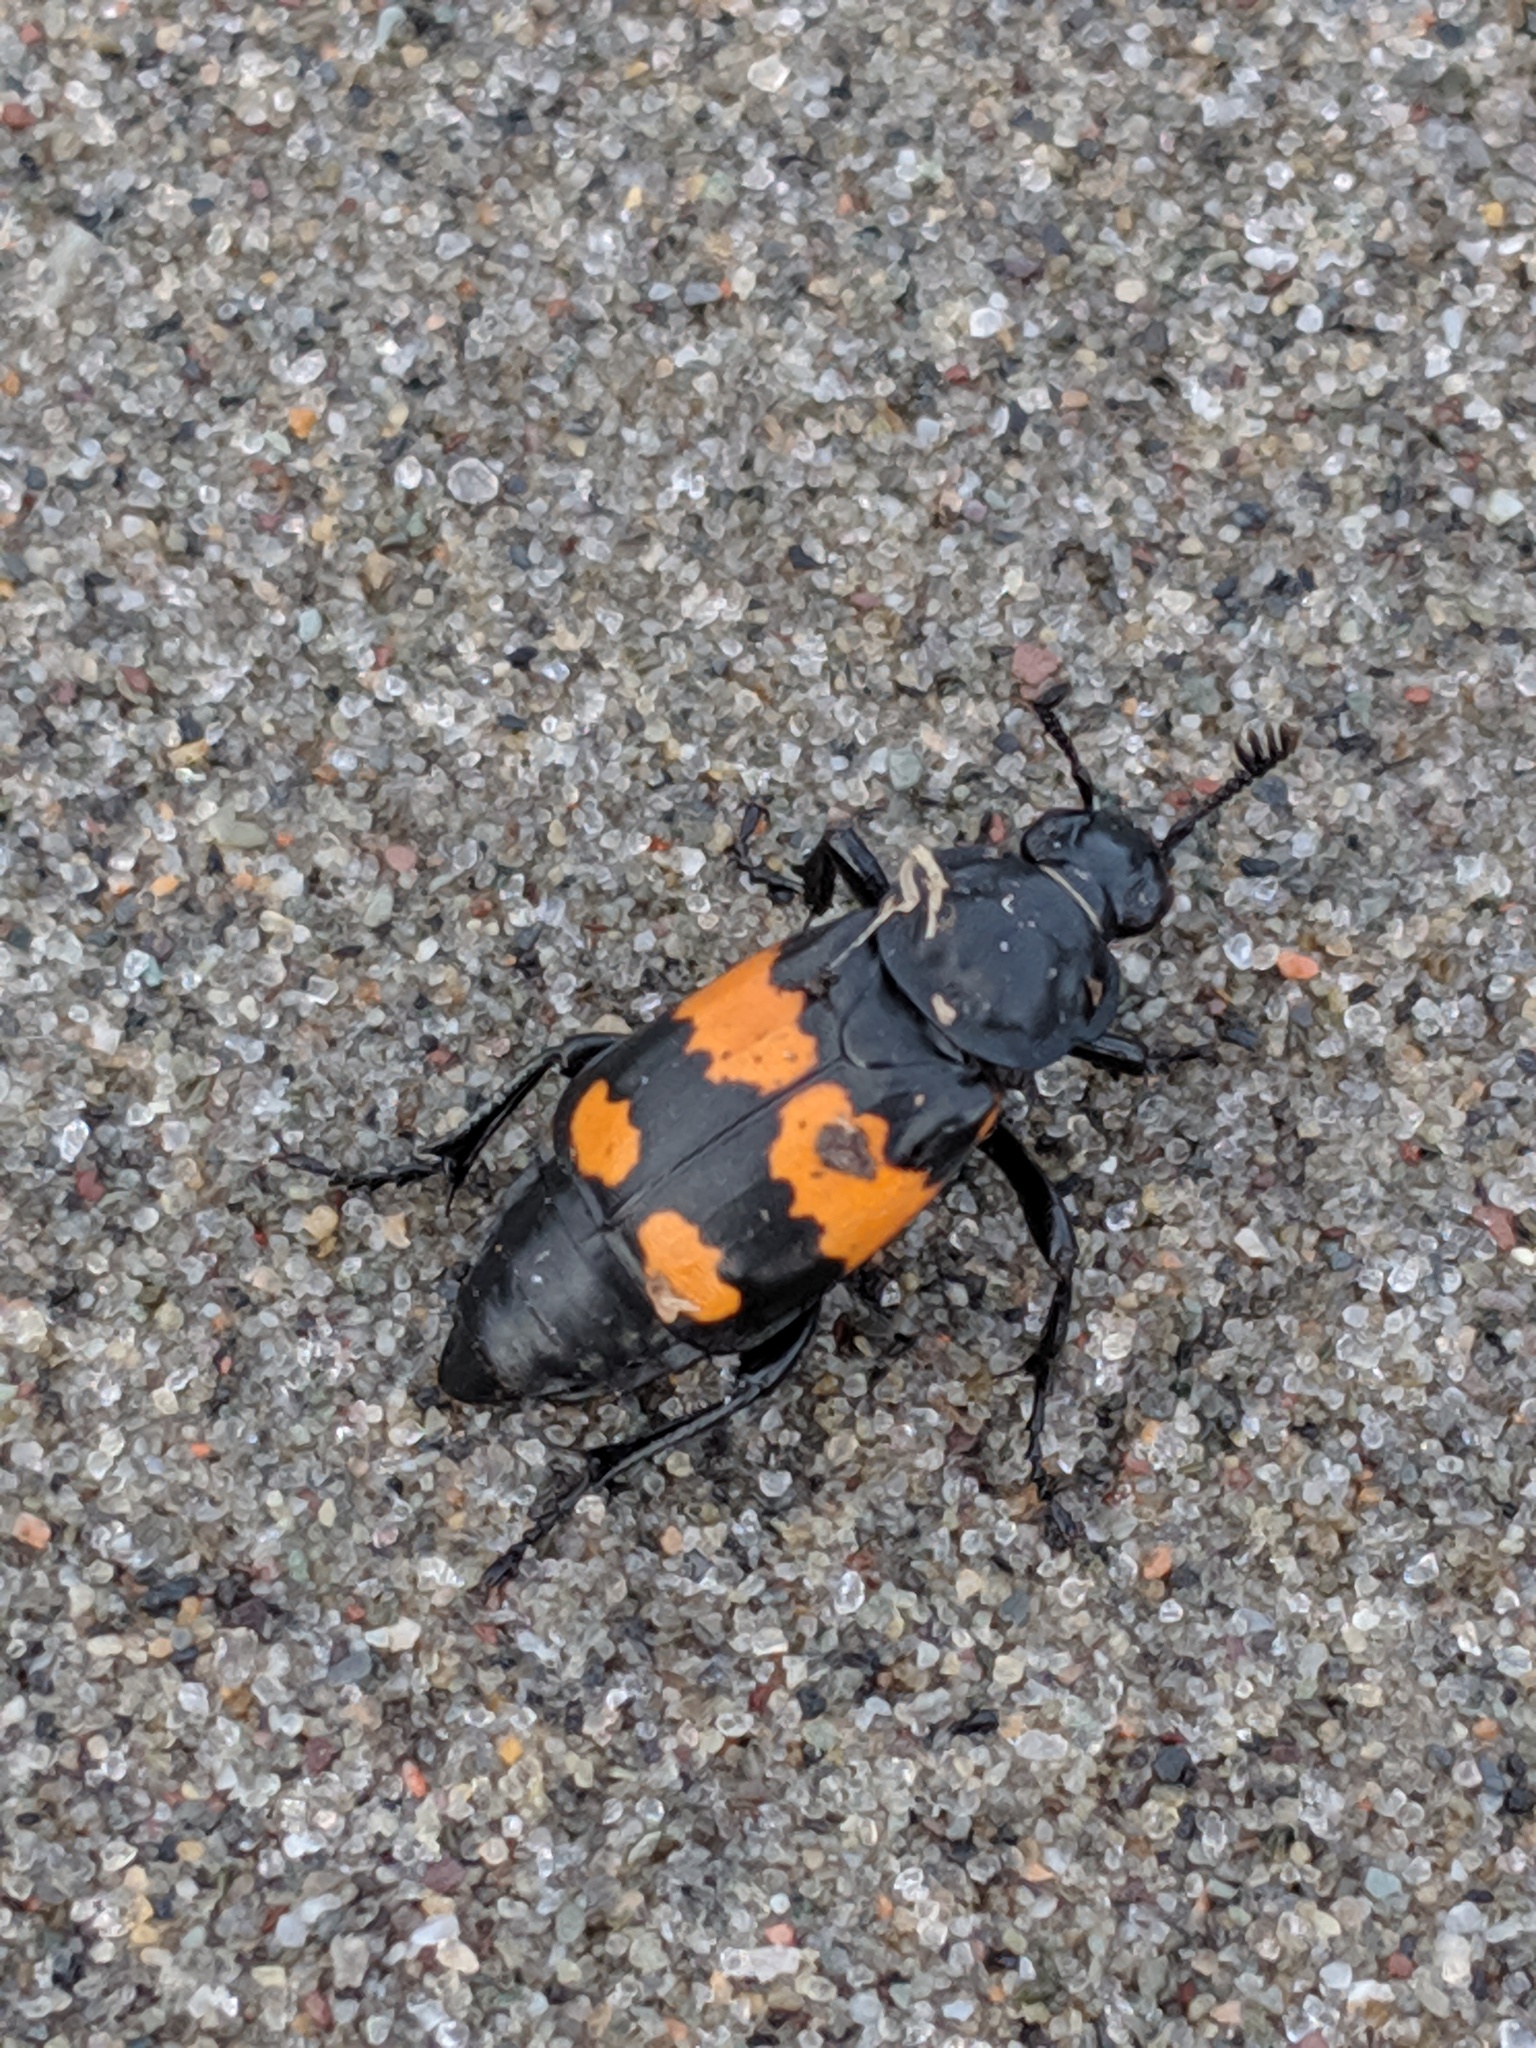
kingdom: Animalia
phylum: Arthropoda
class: Insecta
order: Coleoptera
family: Staphylinidae
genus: Nicrophorus
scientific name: Nicrophorus hebes
